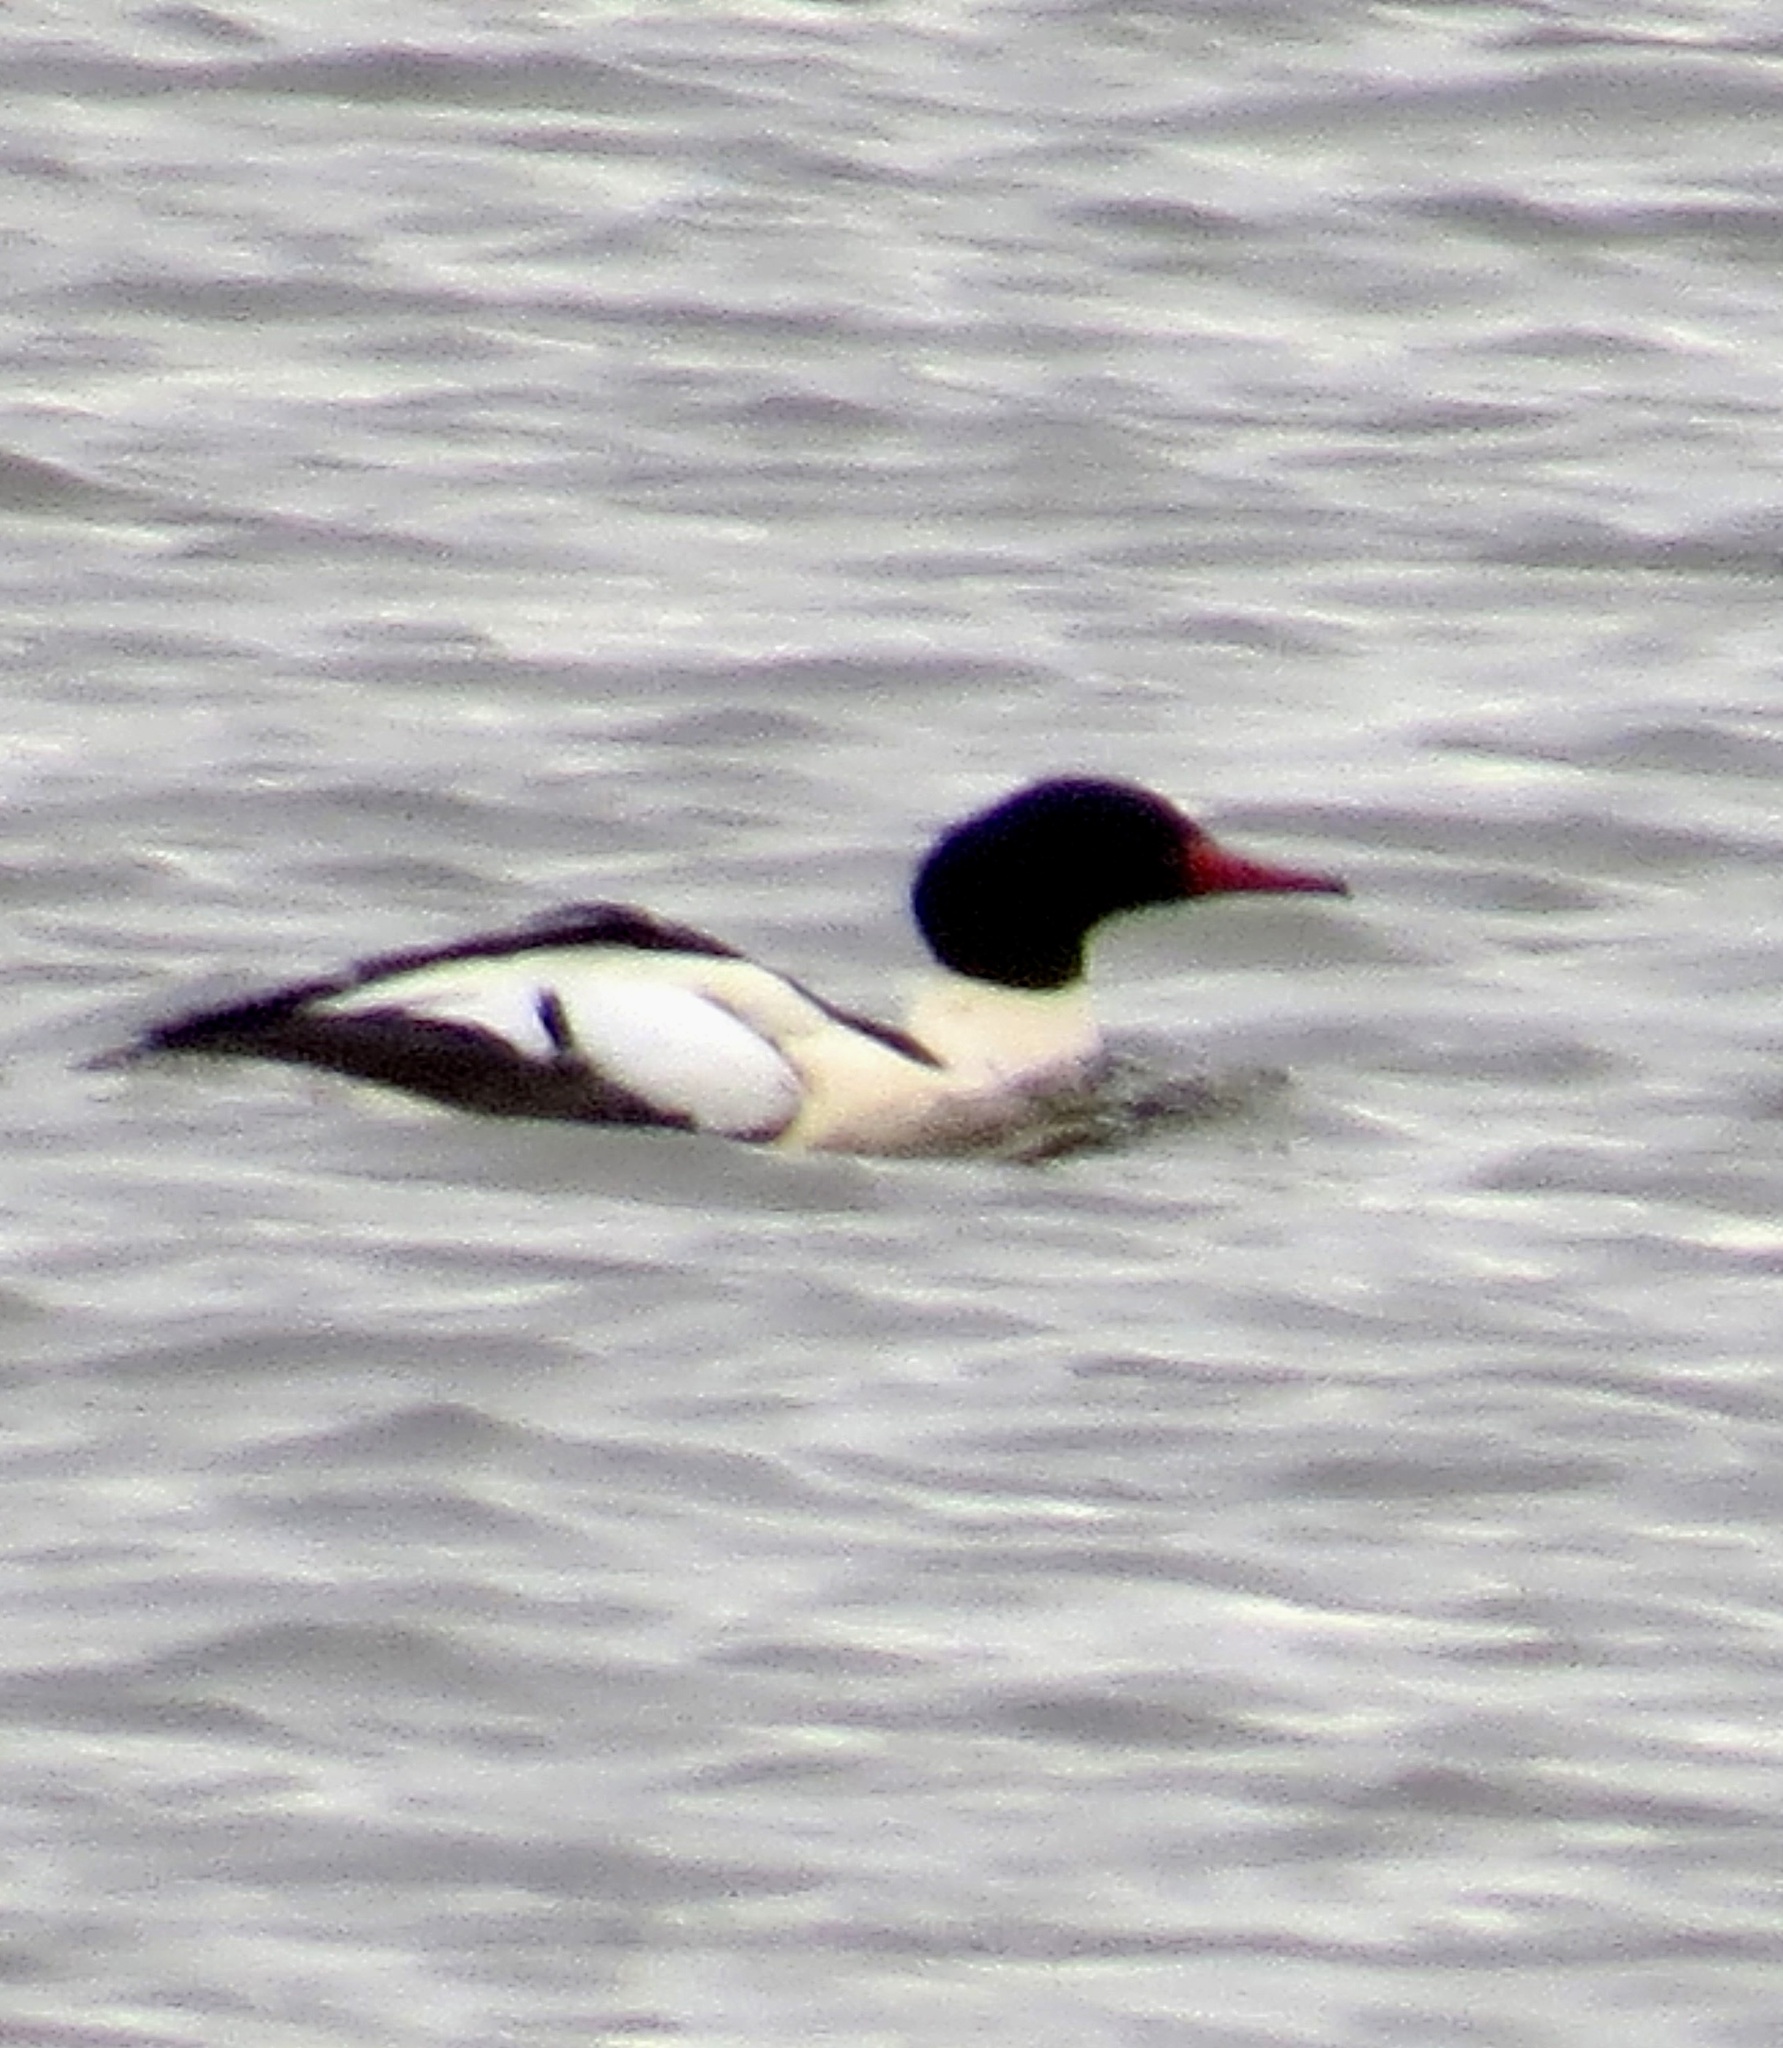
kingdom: Animalia
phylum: Chordata
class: Aves
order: Anseriformes
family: Anatidae
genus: Mergus
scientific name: Mergus merganser
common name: Common merganser
